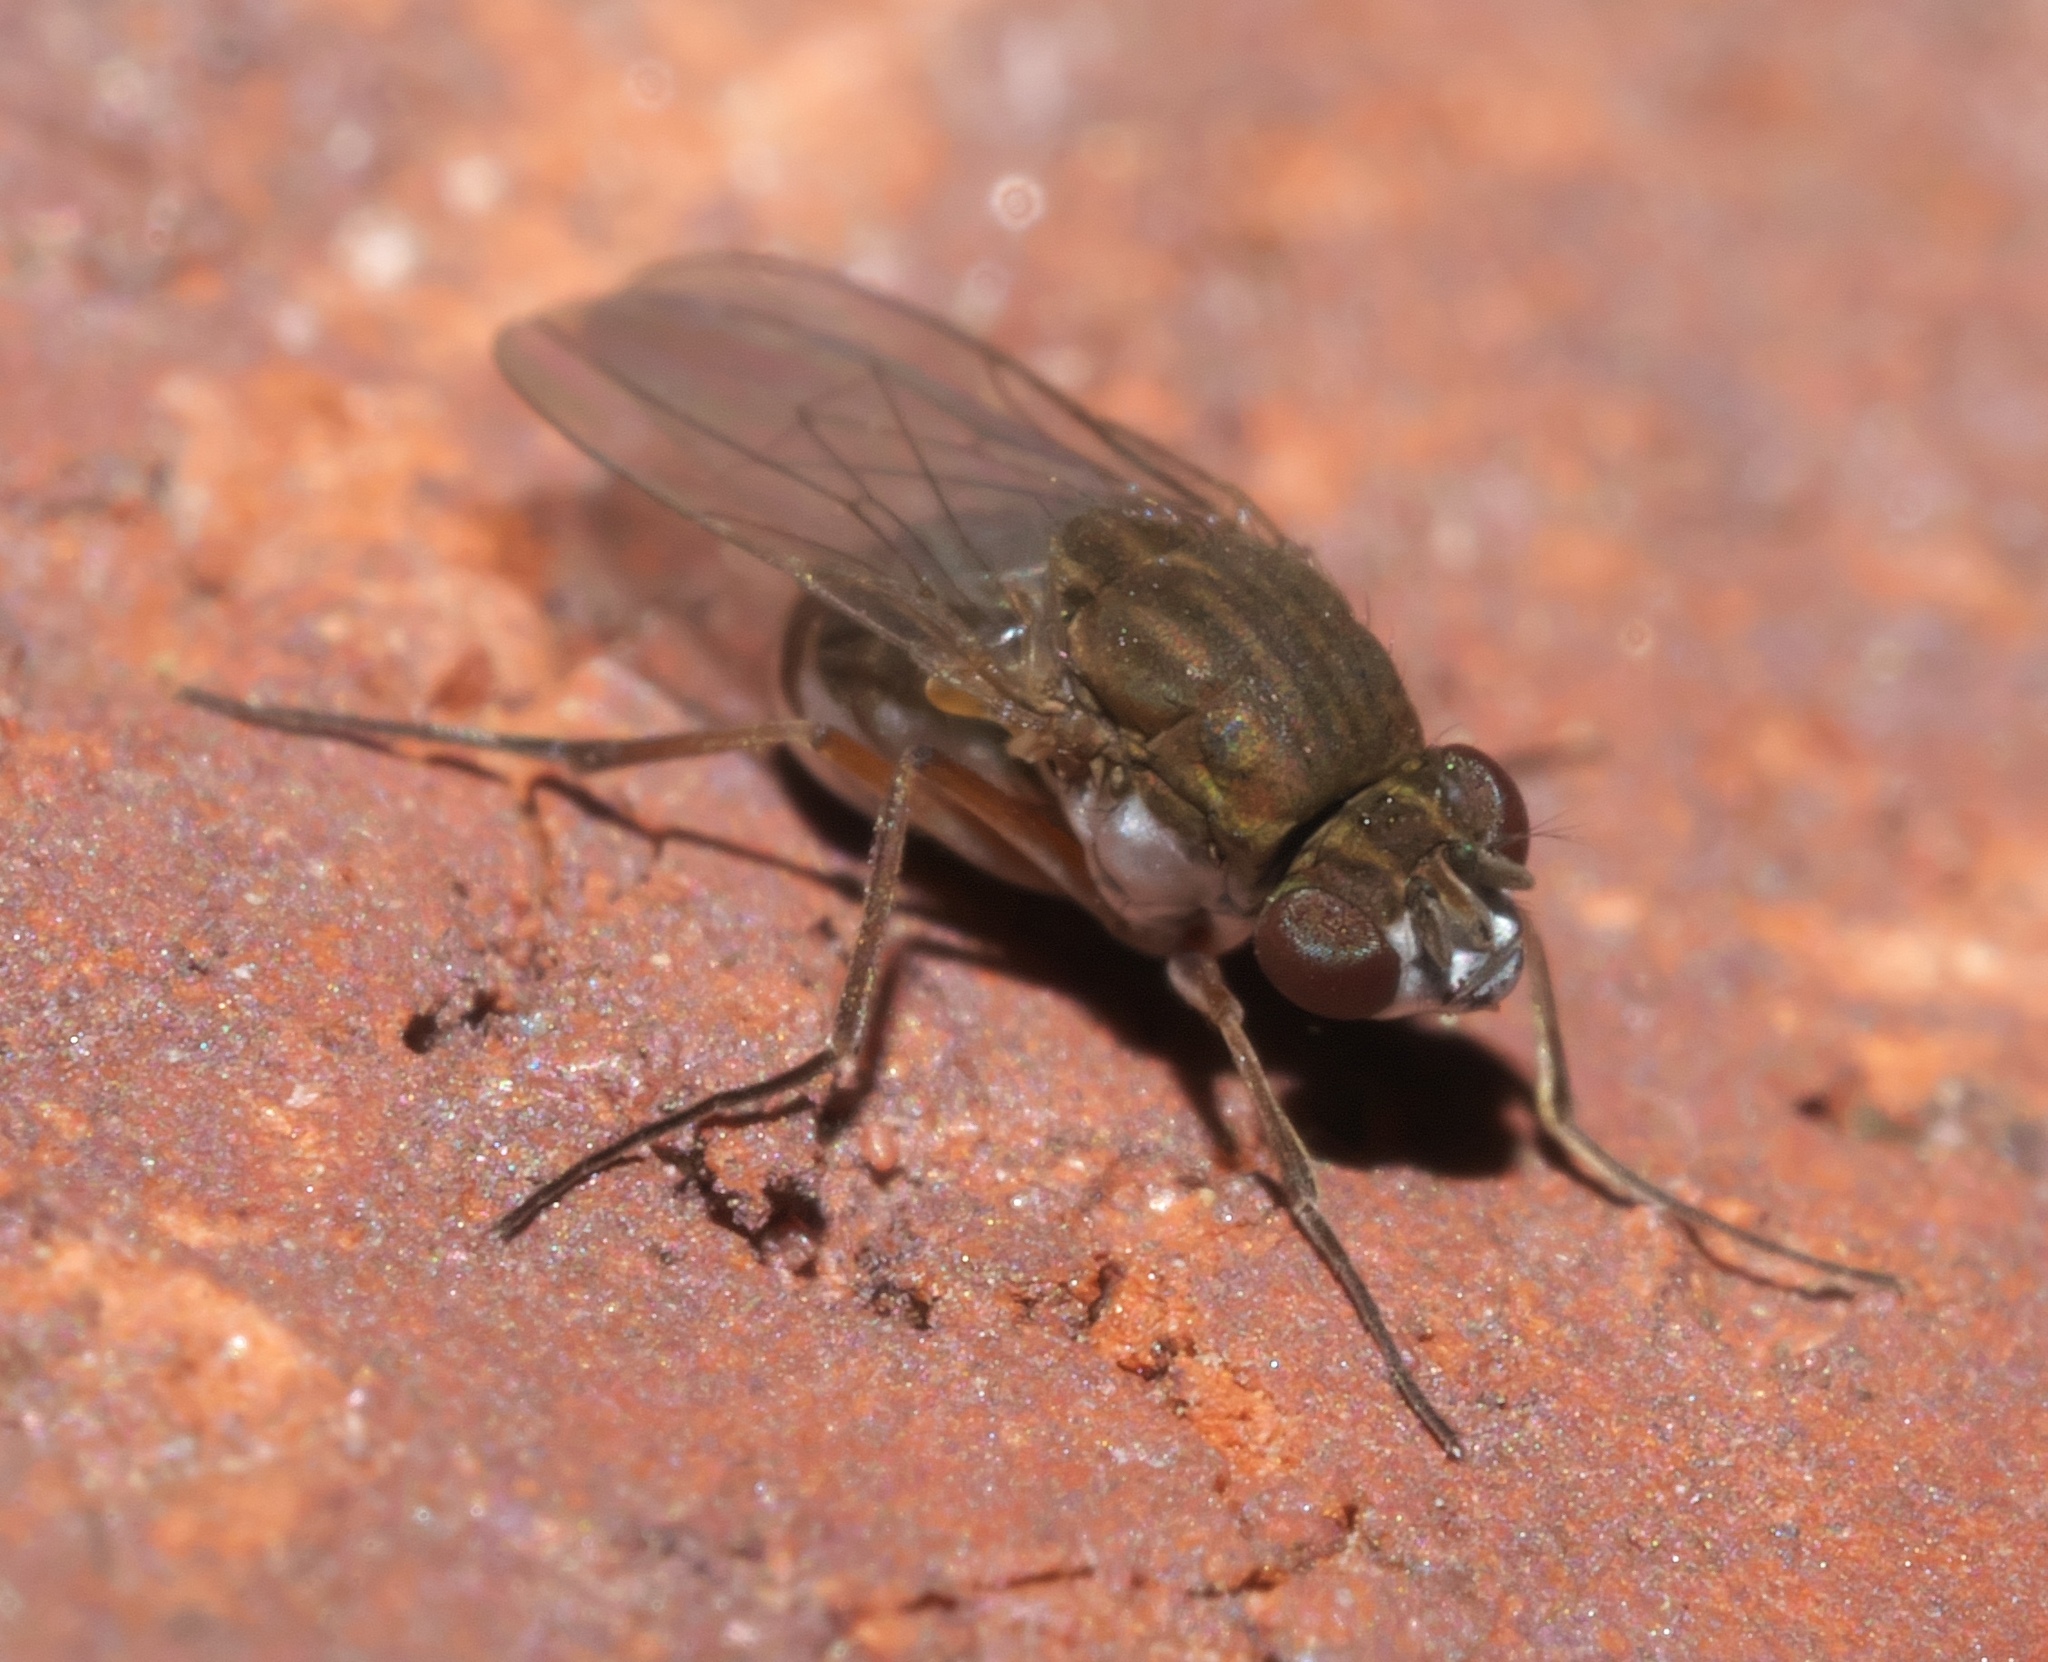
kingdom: Animalia
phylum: Arthropoda
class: Insecta
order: Diptera
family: Ephydridae
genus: Brachydeutera
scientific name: Brachydeutera argentata
